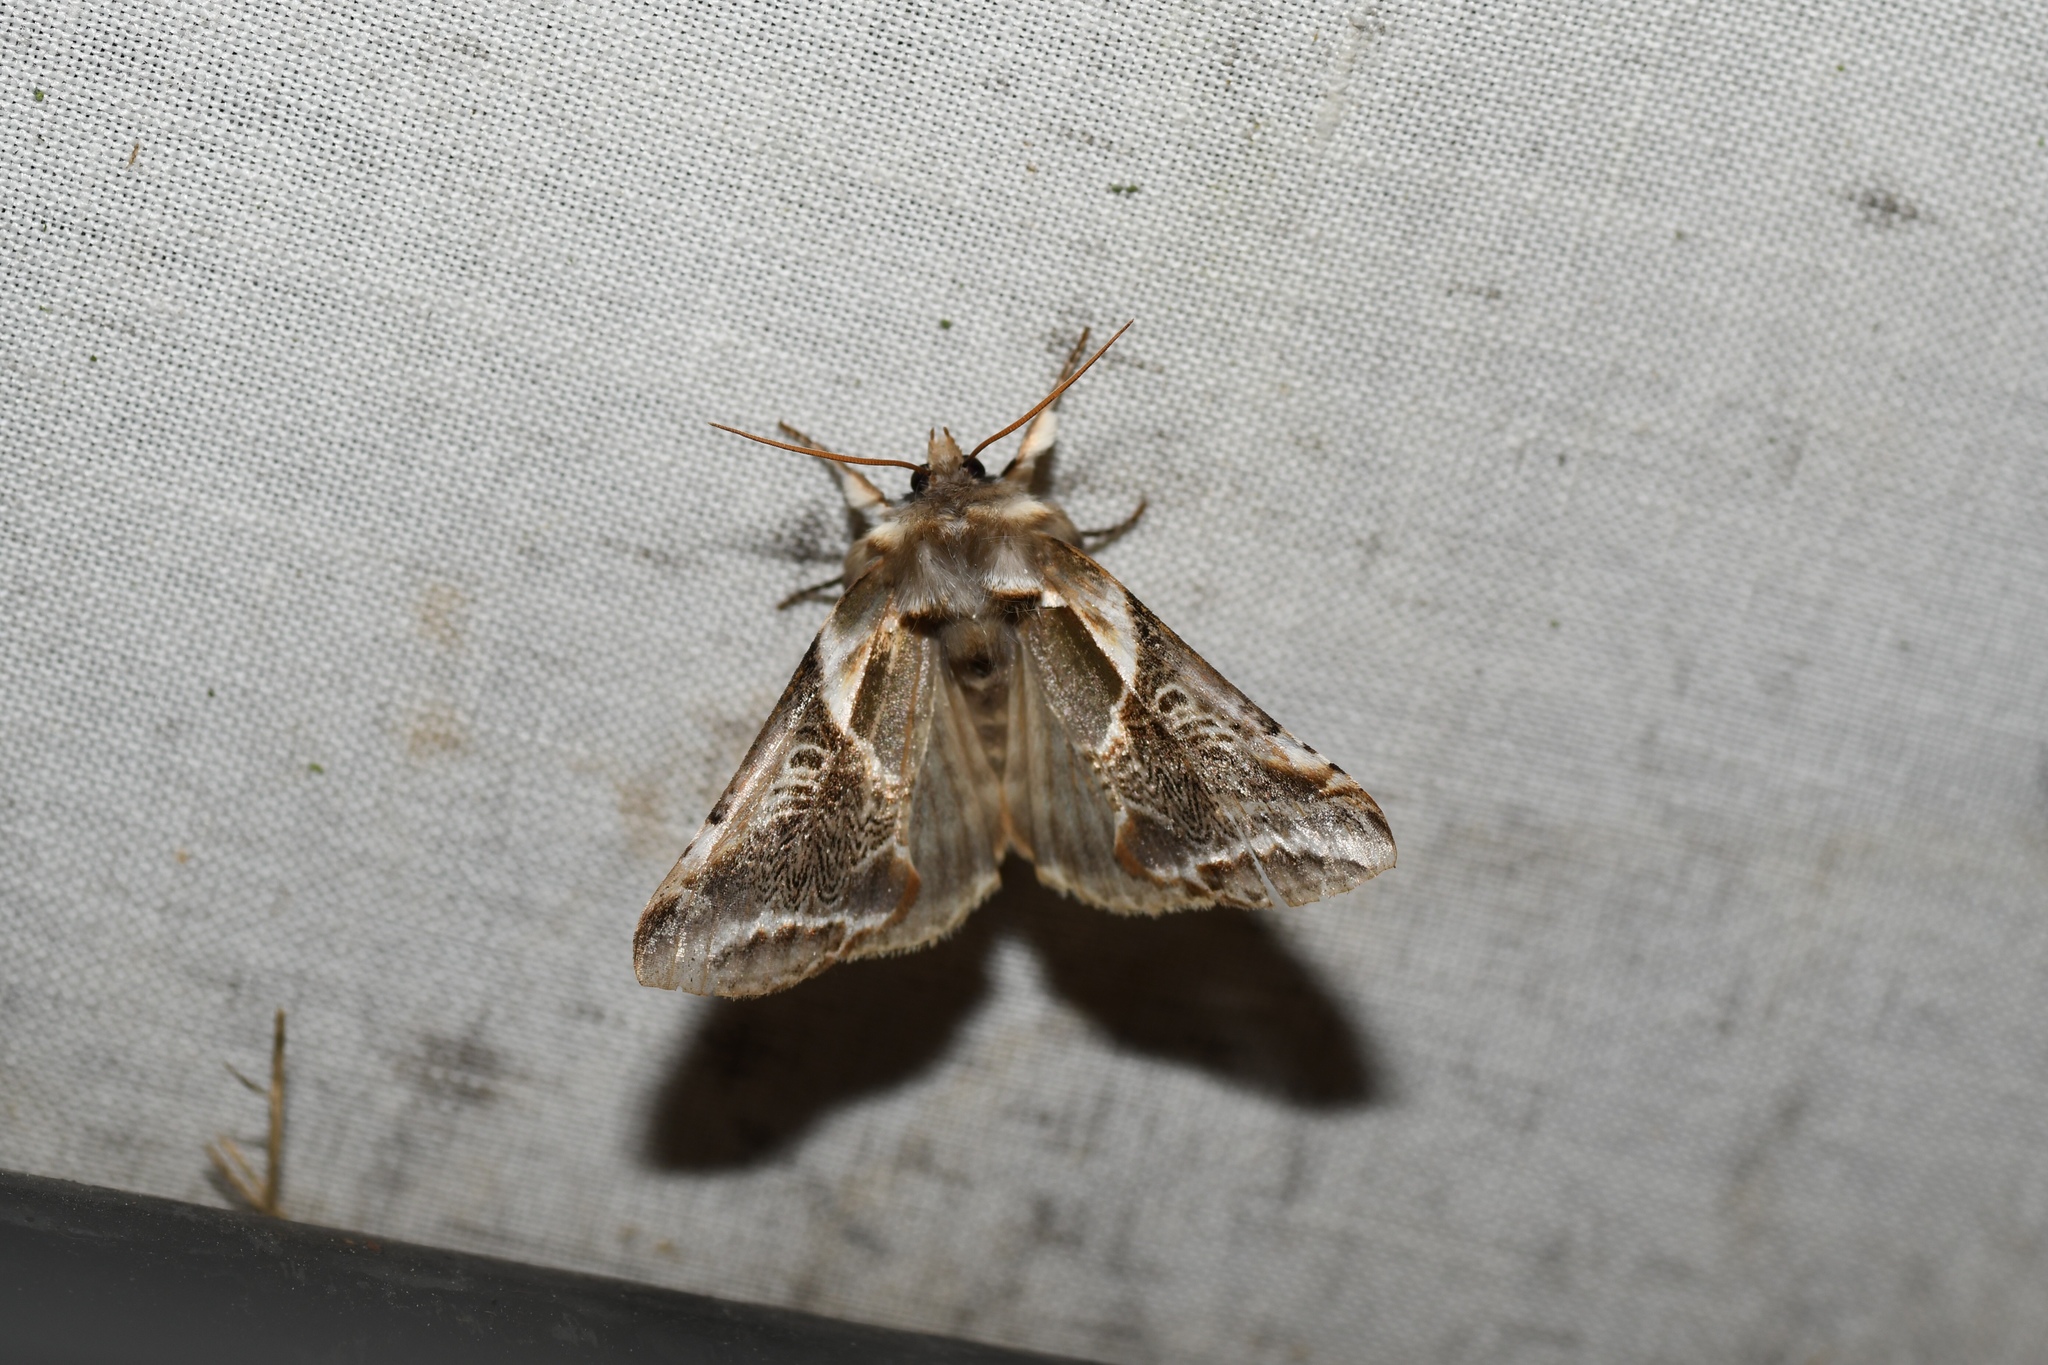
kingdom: Animalia
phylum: Arthropoda
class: Insecta
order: Lepidoptera
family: Drepanidae
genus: Habrosyne
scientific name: Habrosyne scripta
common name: Lettered habrosyne moth
